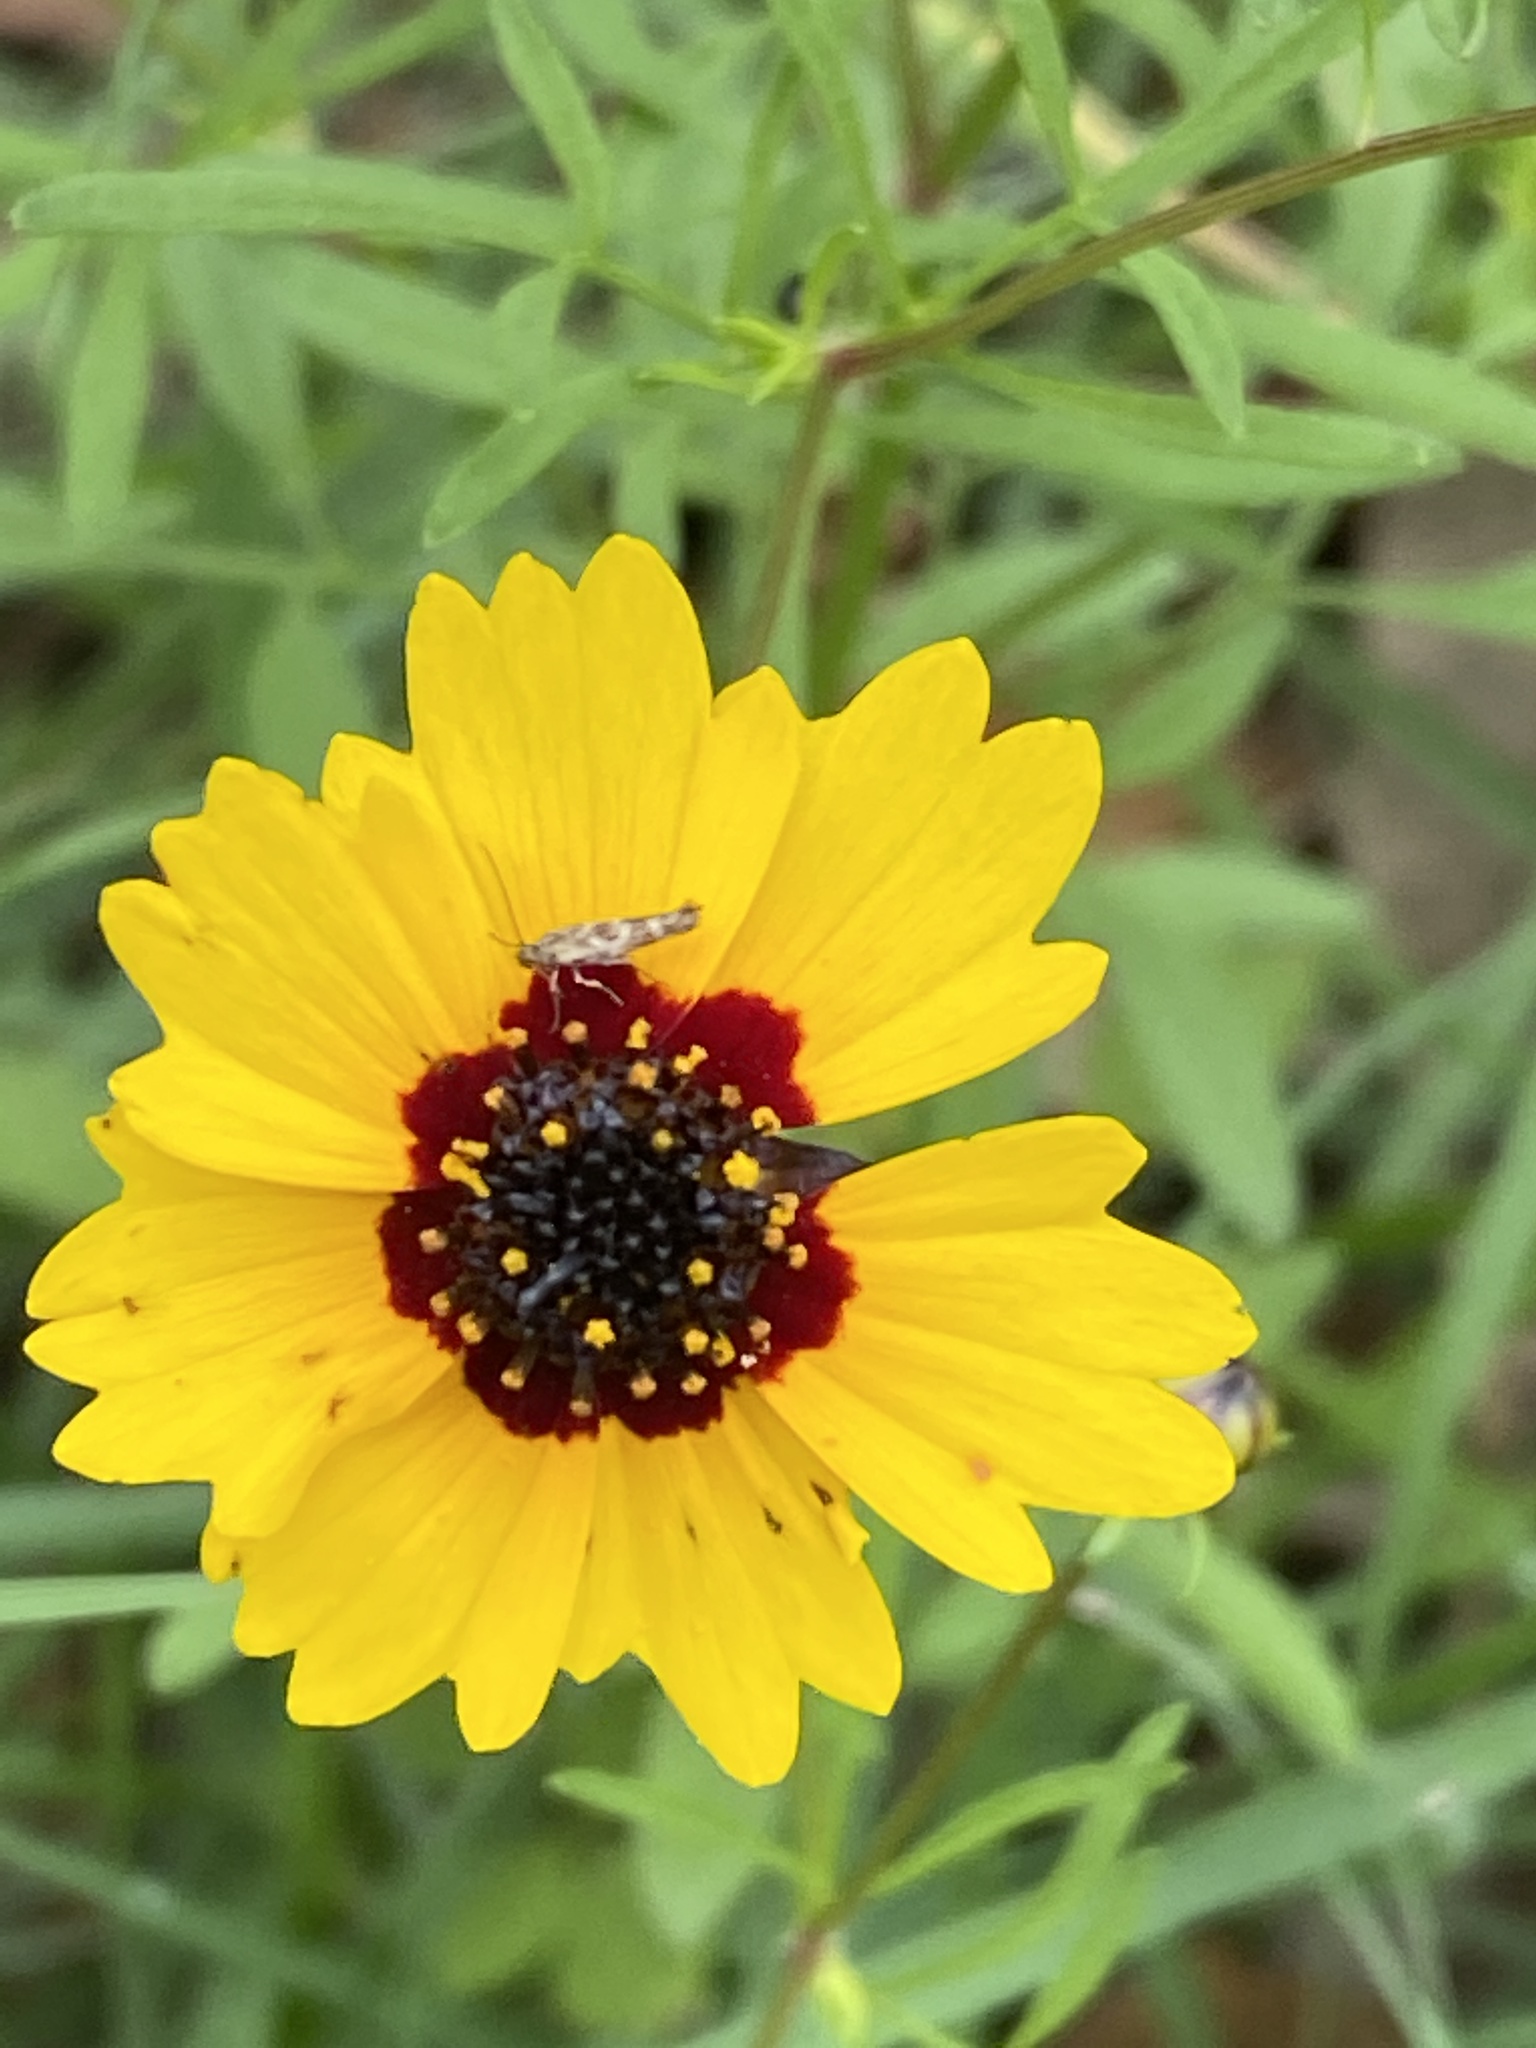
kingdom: Plantae
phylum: Tracheophyta
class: Magnoliopsida
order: Asterales
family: Asteraceae
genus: Coreopsis
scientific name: Coreopsis basalis
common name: Golden-mane coreopsis
